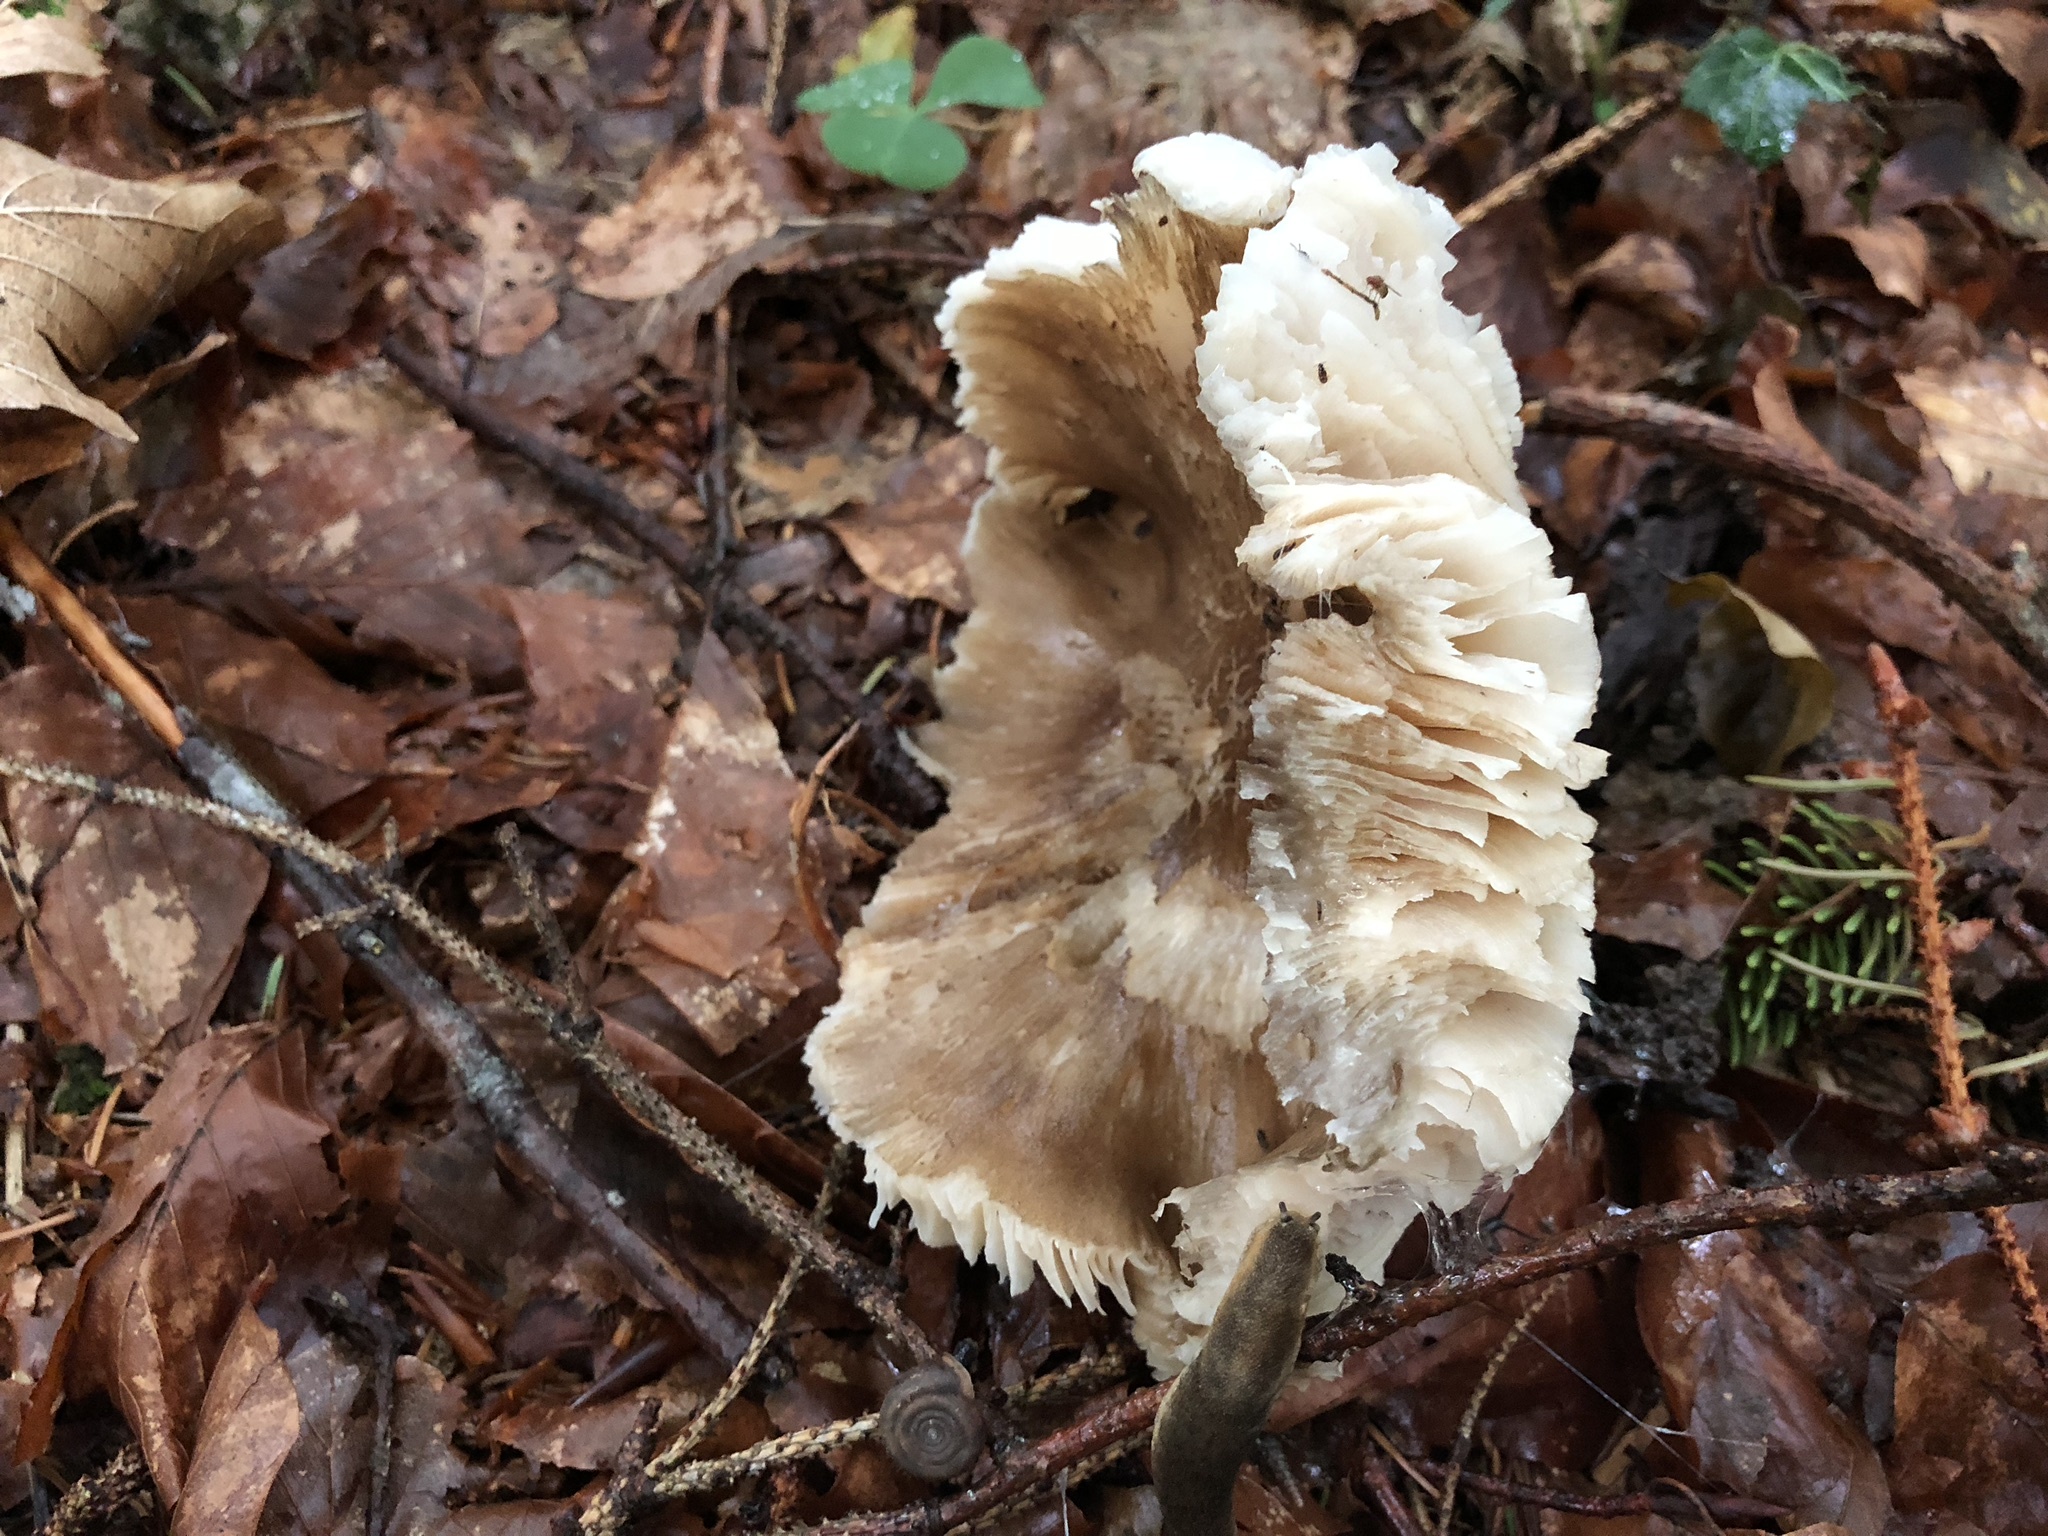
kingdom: Fungi
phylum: Basidiomycota
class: Agaricomycetes
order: Agaricales
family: Tricholomataceae
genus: Megacollybia
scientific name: Megacollybia platyphylla
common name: Whitelaced shank
